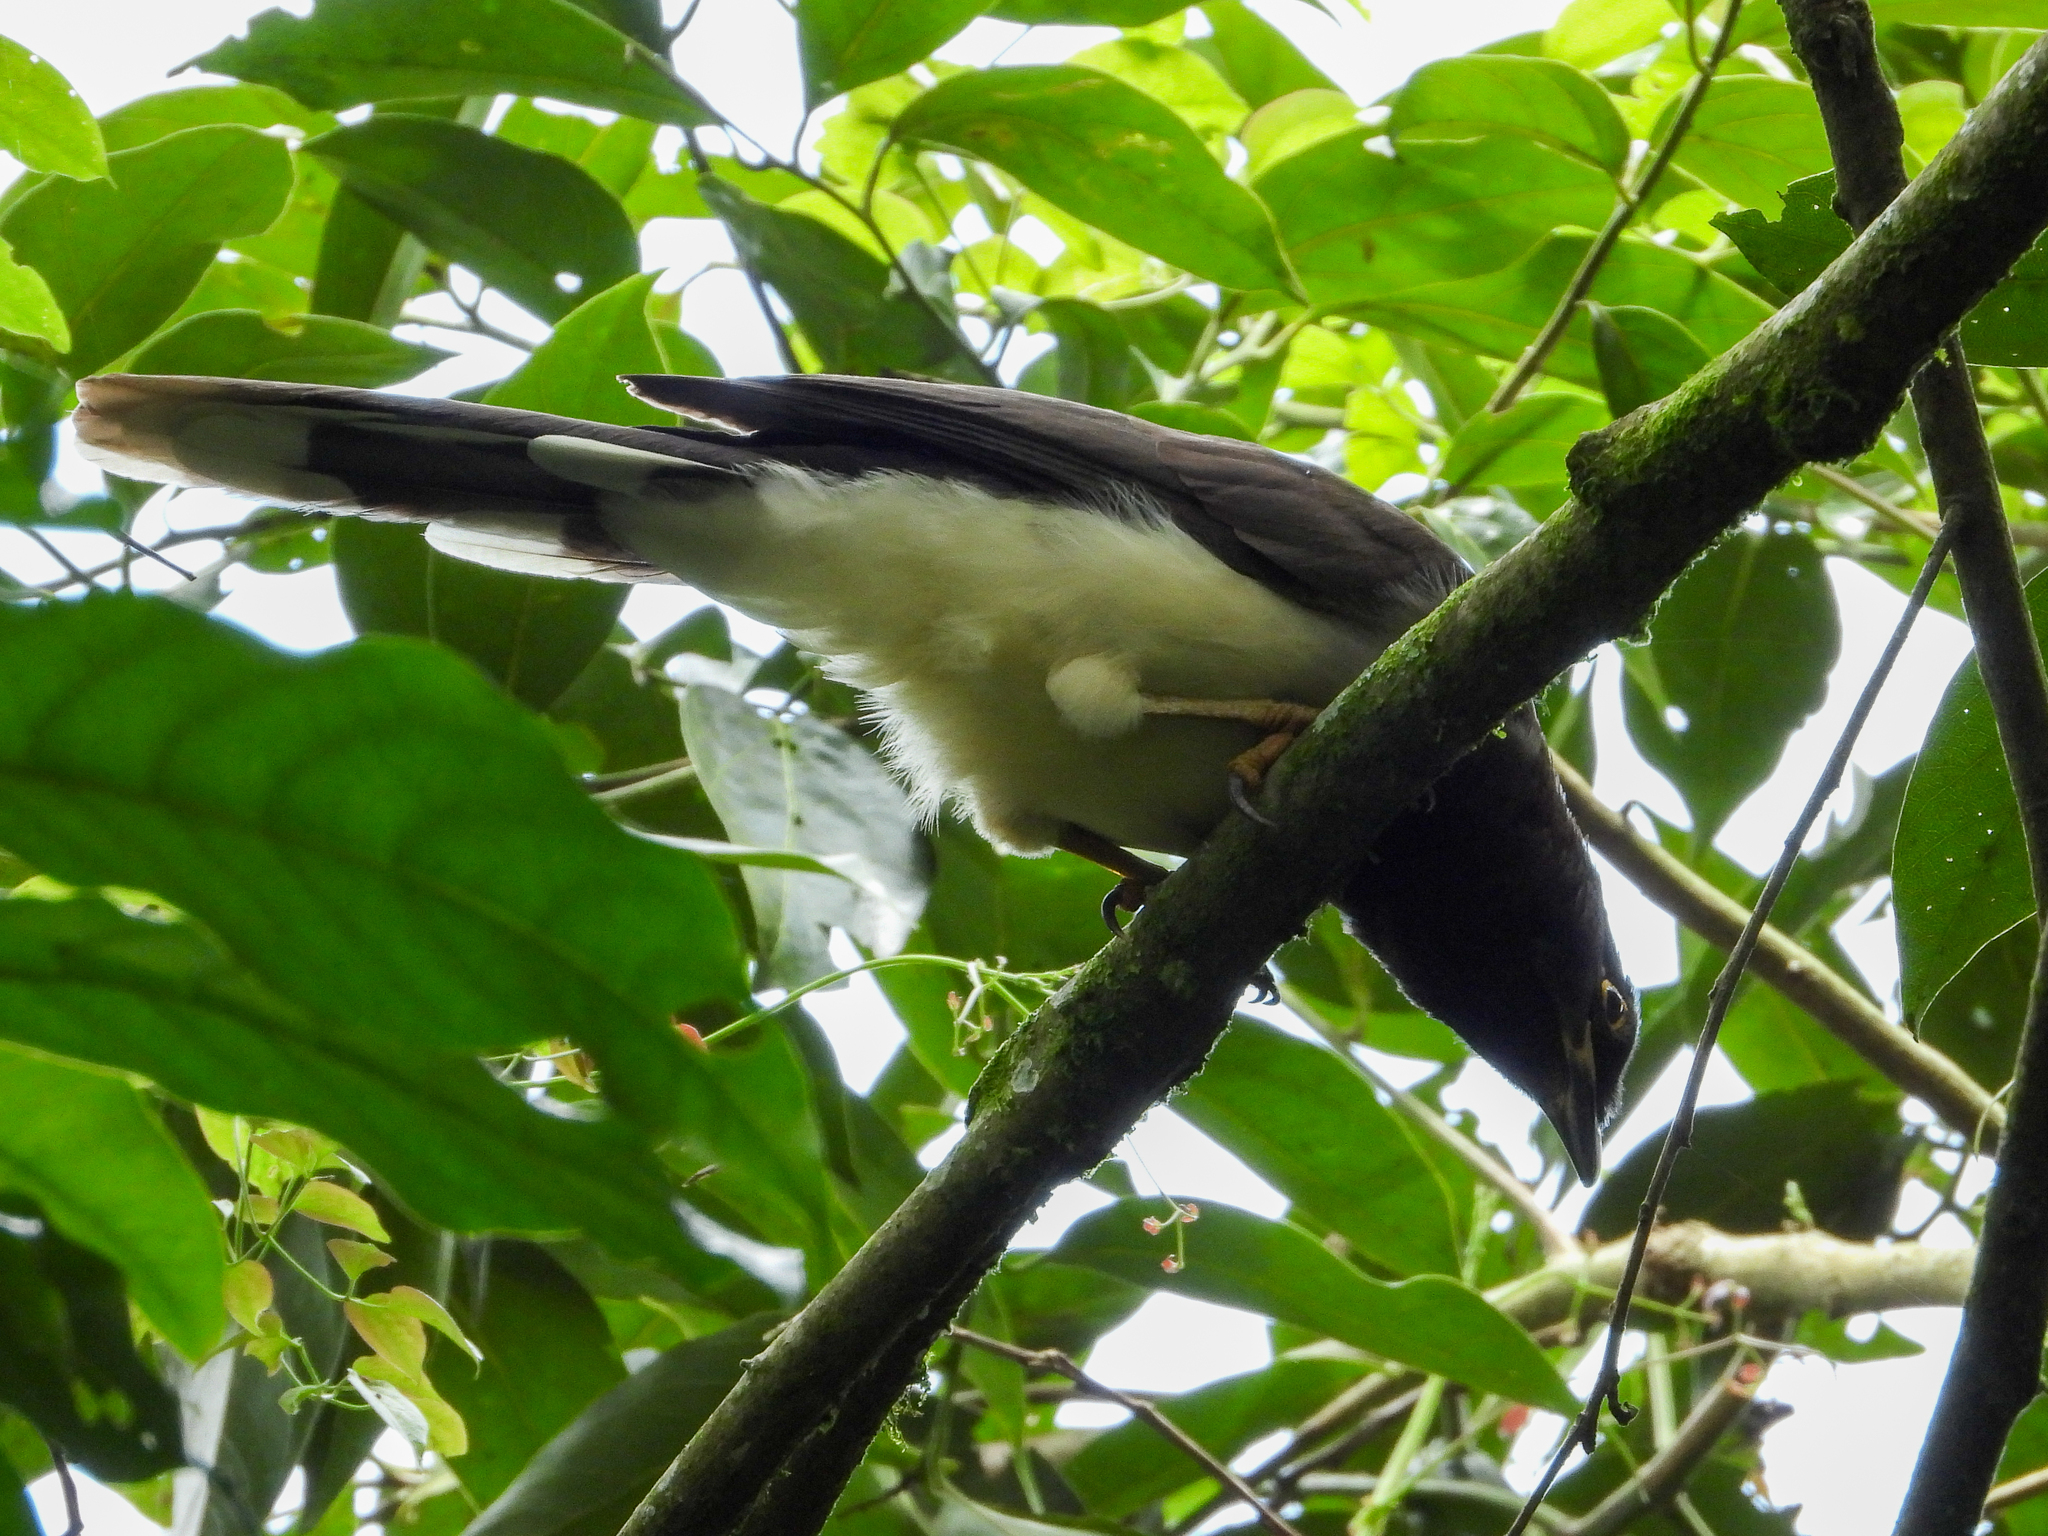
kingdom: Animalia
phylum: Chordata
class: Aves
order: Passeriformes
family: Corvidae
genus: Psilorhinus
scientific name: Psilorhinus morio
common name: Brown jay
